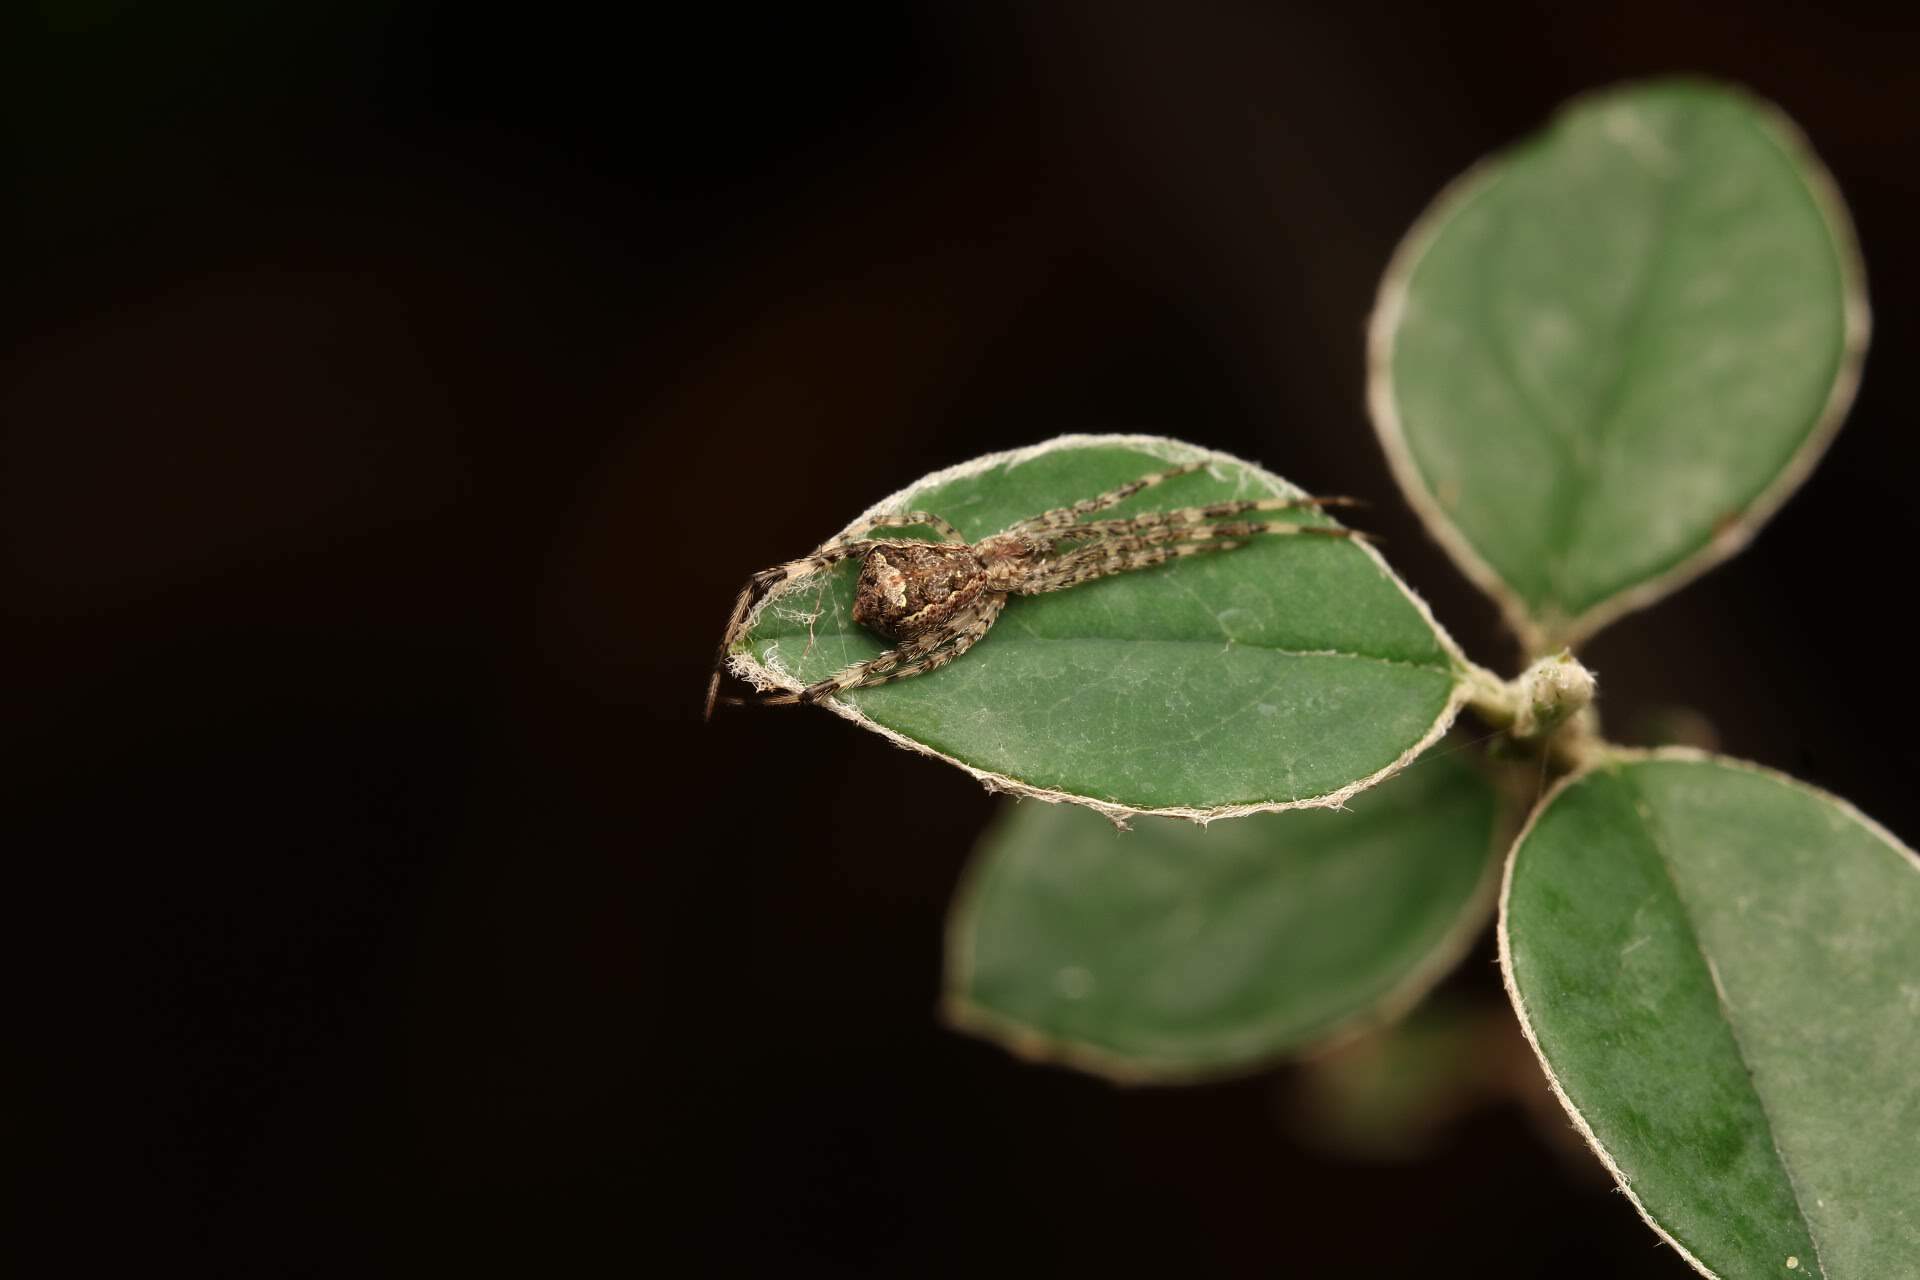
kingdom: Animalia
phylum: Arthropoda
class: Arachnida
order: Araneae
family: Theridiidae
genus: Episinus
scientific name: Episinus maculipes
